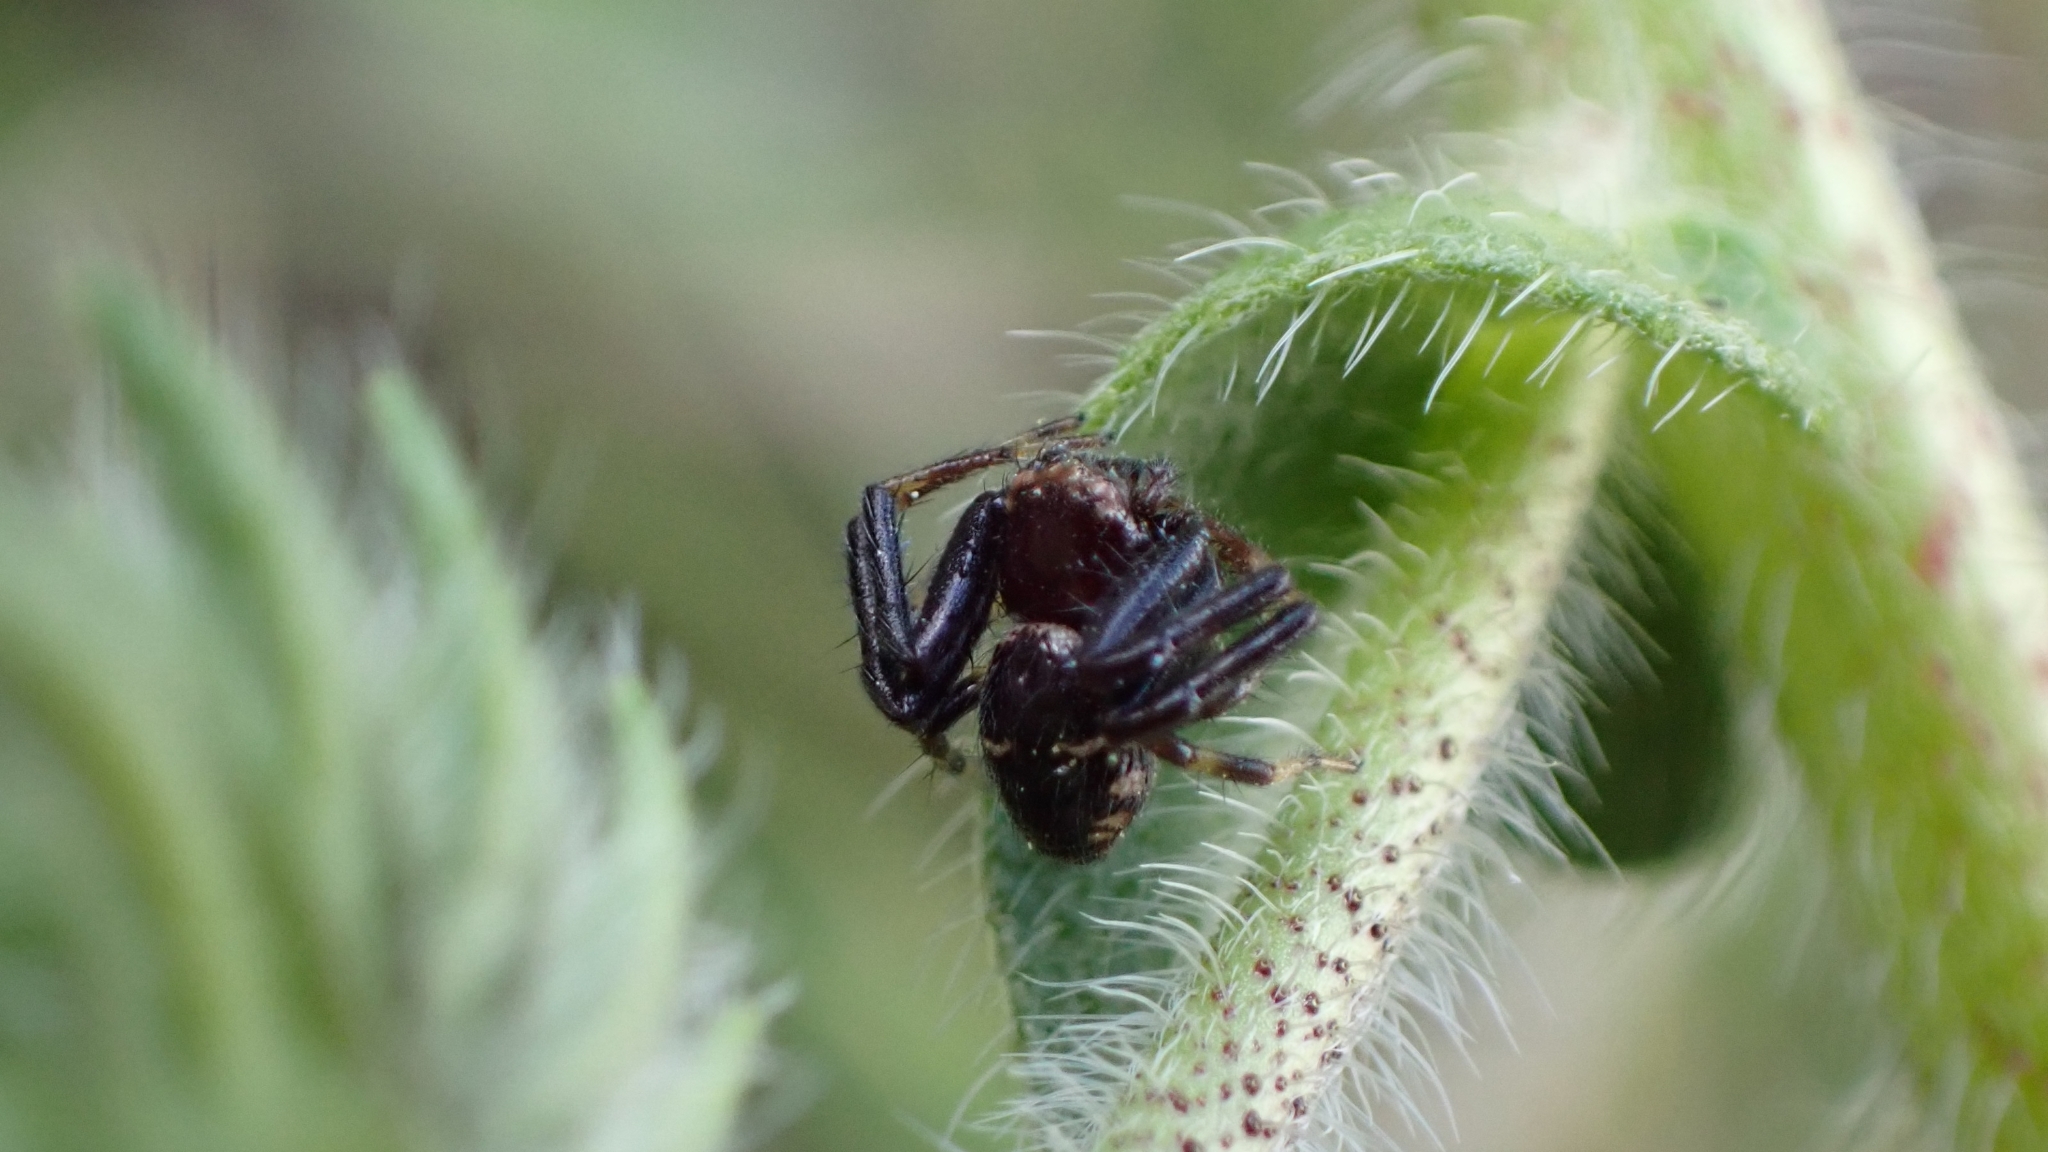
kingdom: Animalia
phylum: Arthropoda
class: Arachnida
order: Araneae
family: Thomisidae
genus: Synema
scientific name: Synema globosum
